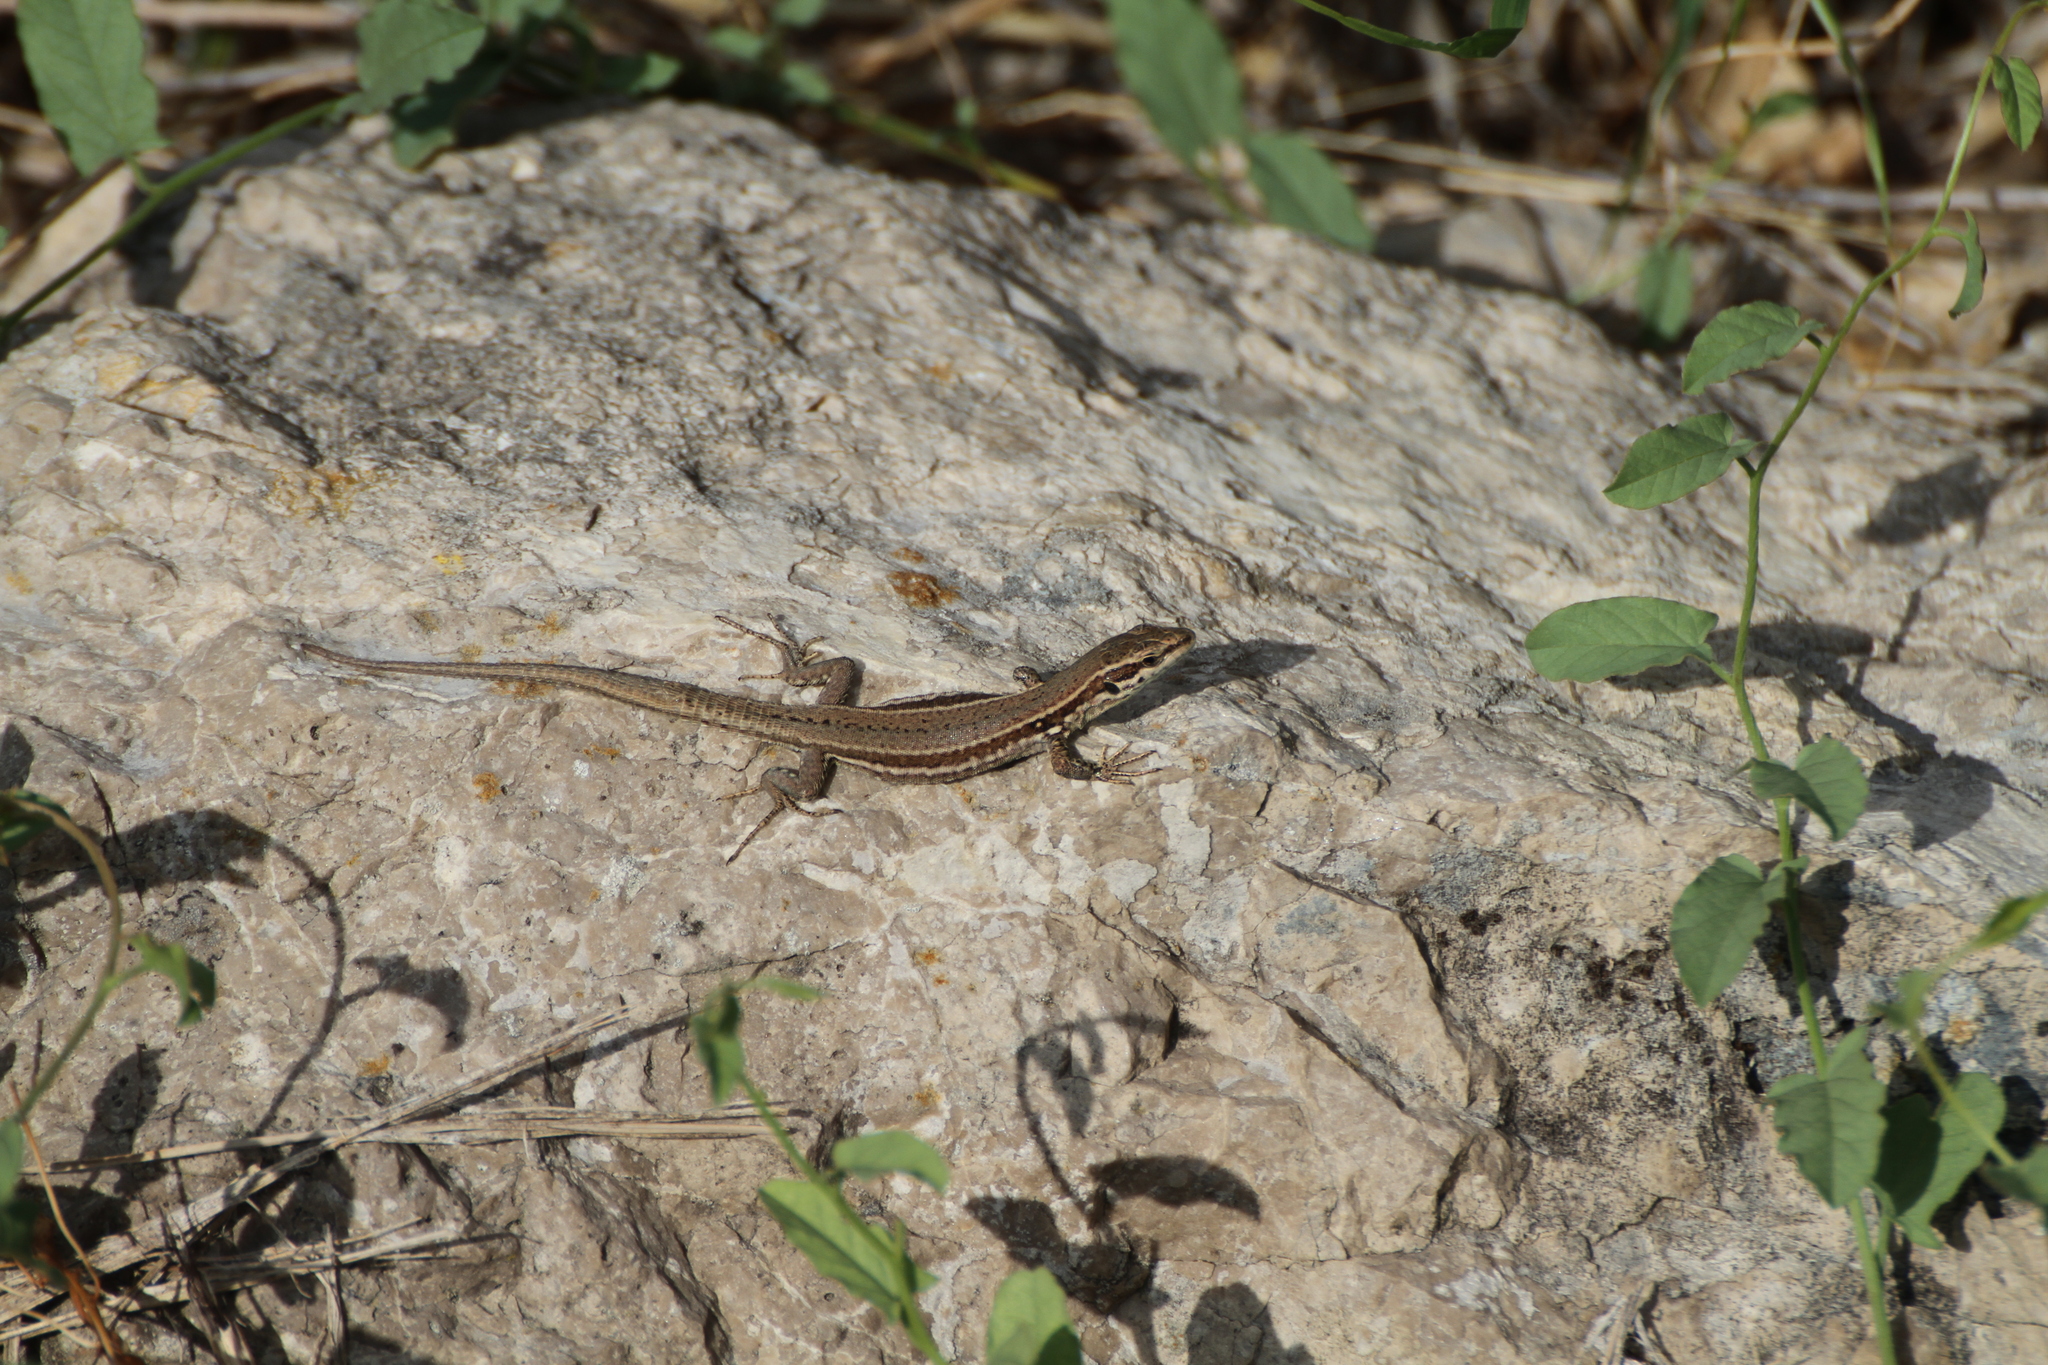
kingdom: Animalia
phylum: Chordata
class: Squamata
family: Lacertidae
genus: Podarcis
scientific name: Podarcis muralis
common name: Common wall lizard
